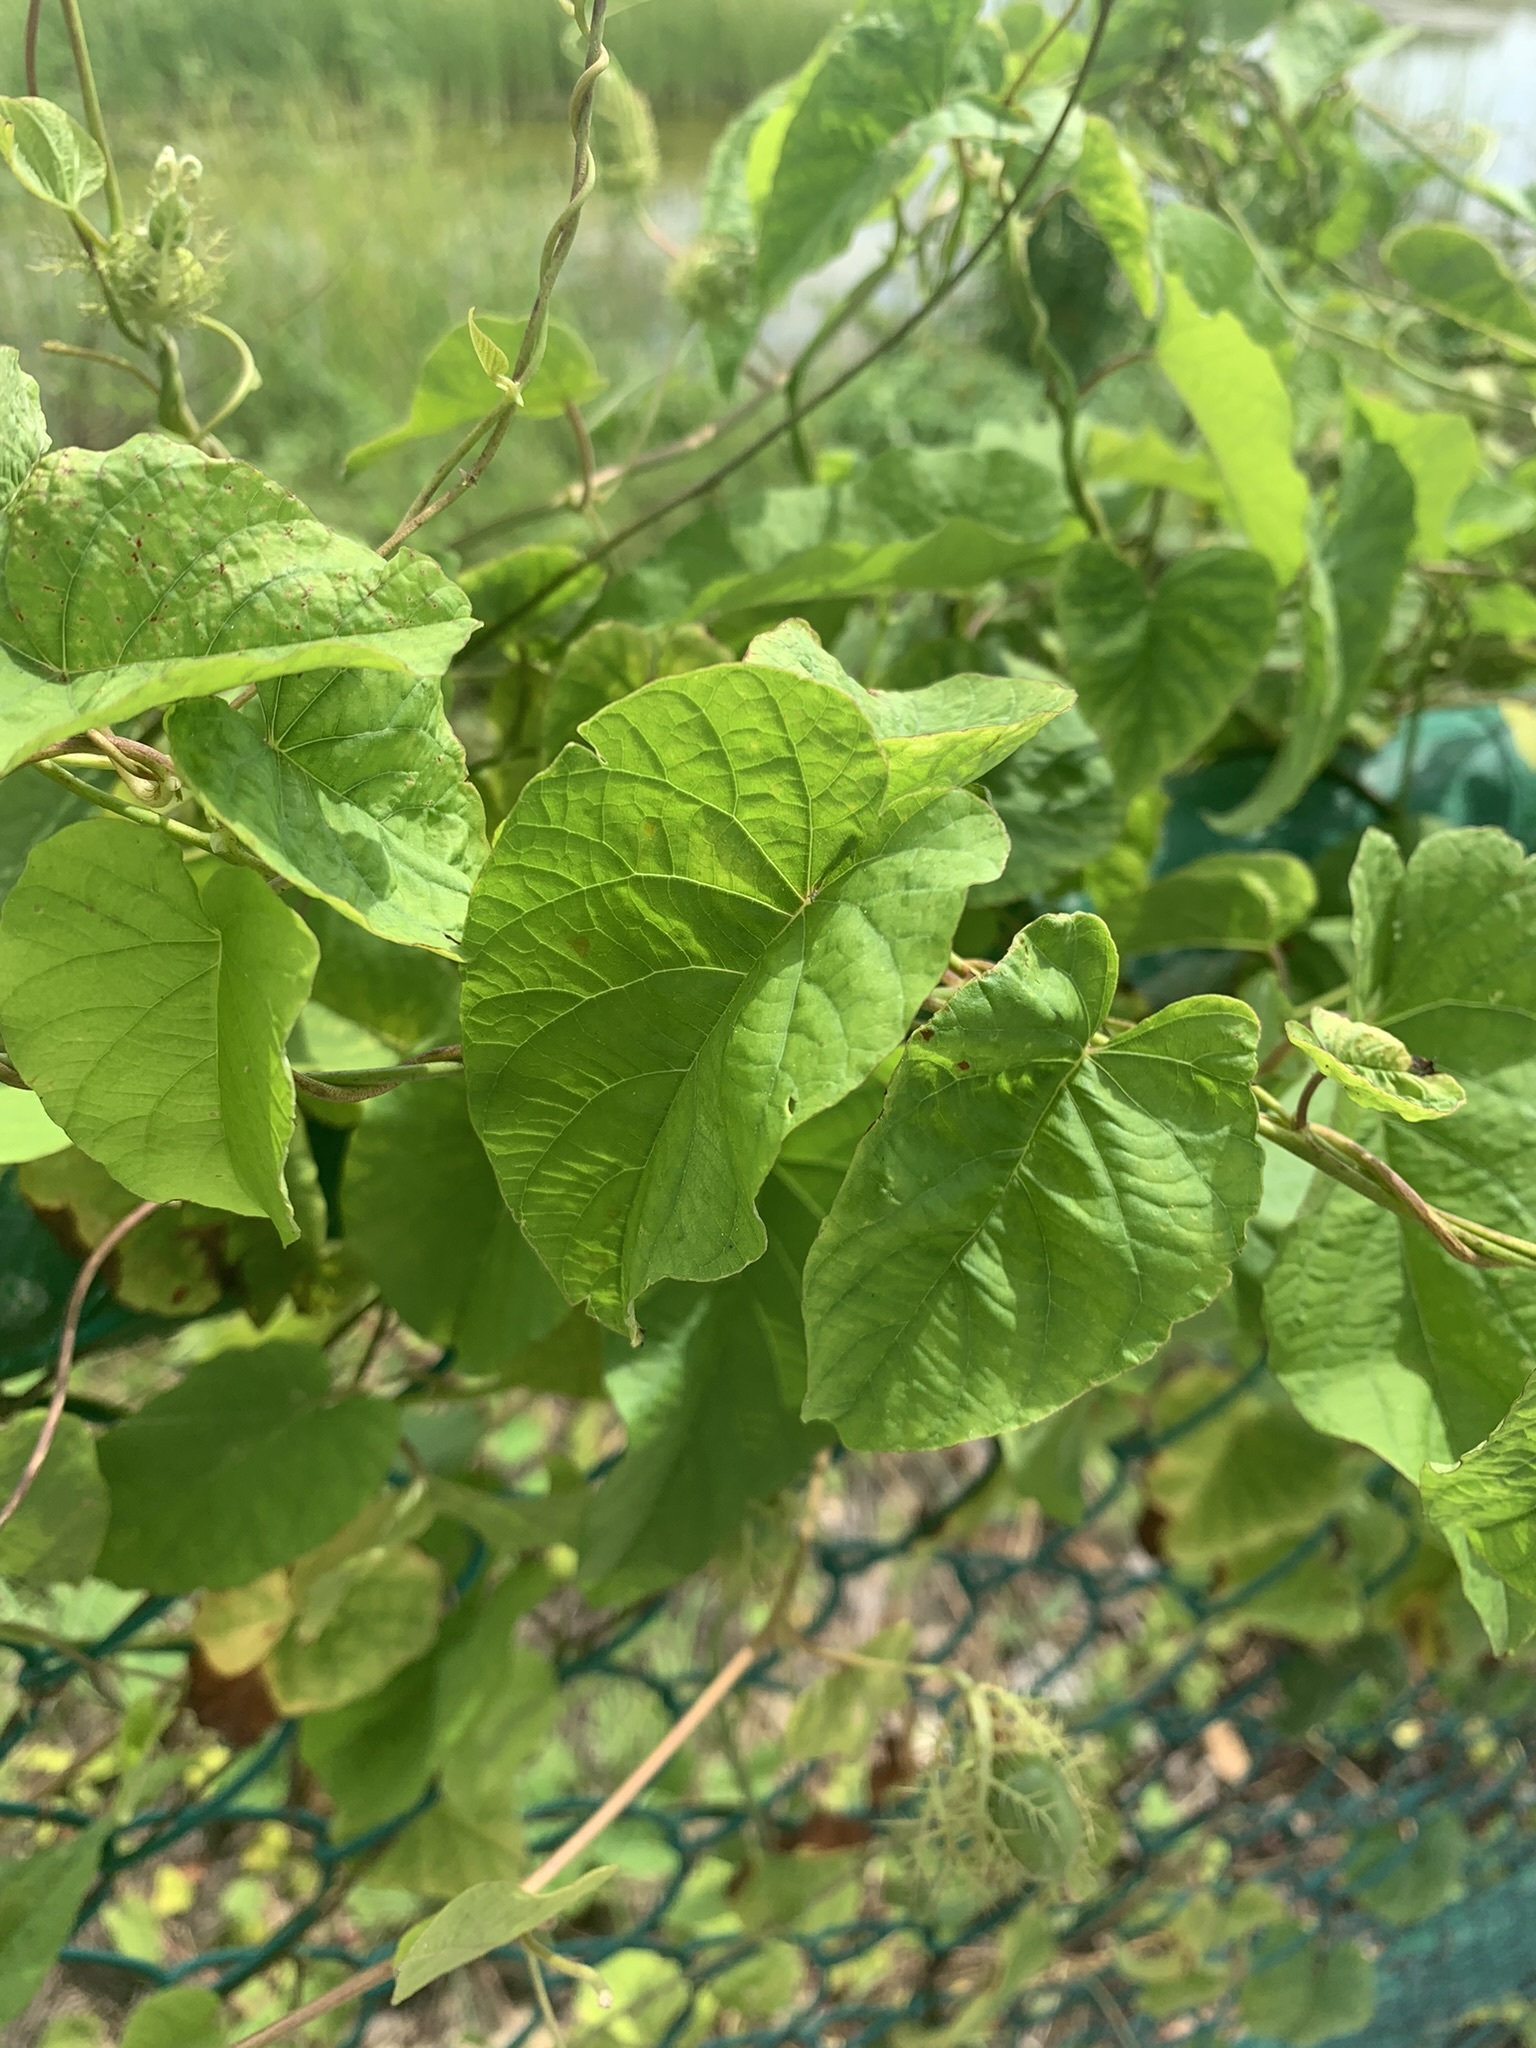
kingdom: Plantae
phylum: Tracheophyta
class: Magnoliopsida
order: Malpighiales
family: Passifloraceae
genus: Passiflora
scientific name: Passiflora foetida
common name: Fetid passionflower
